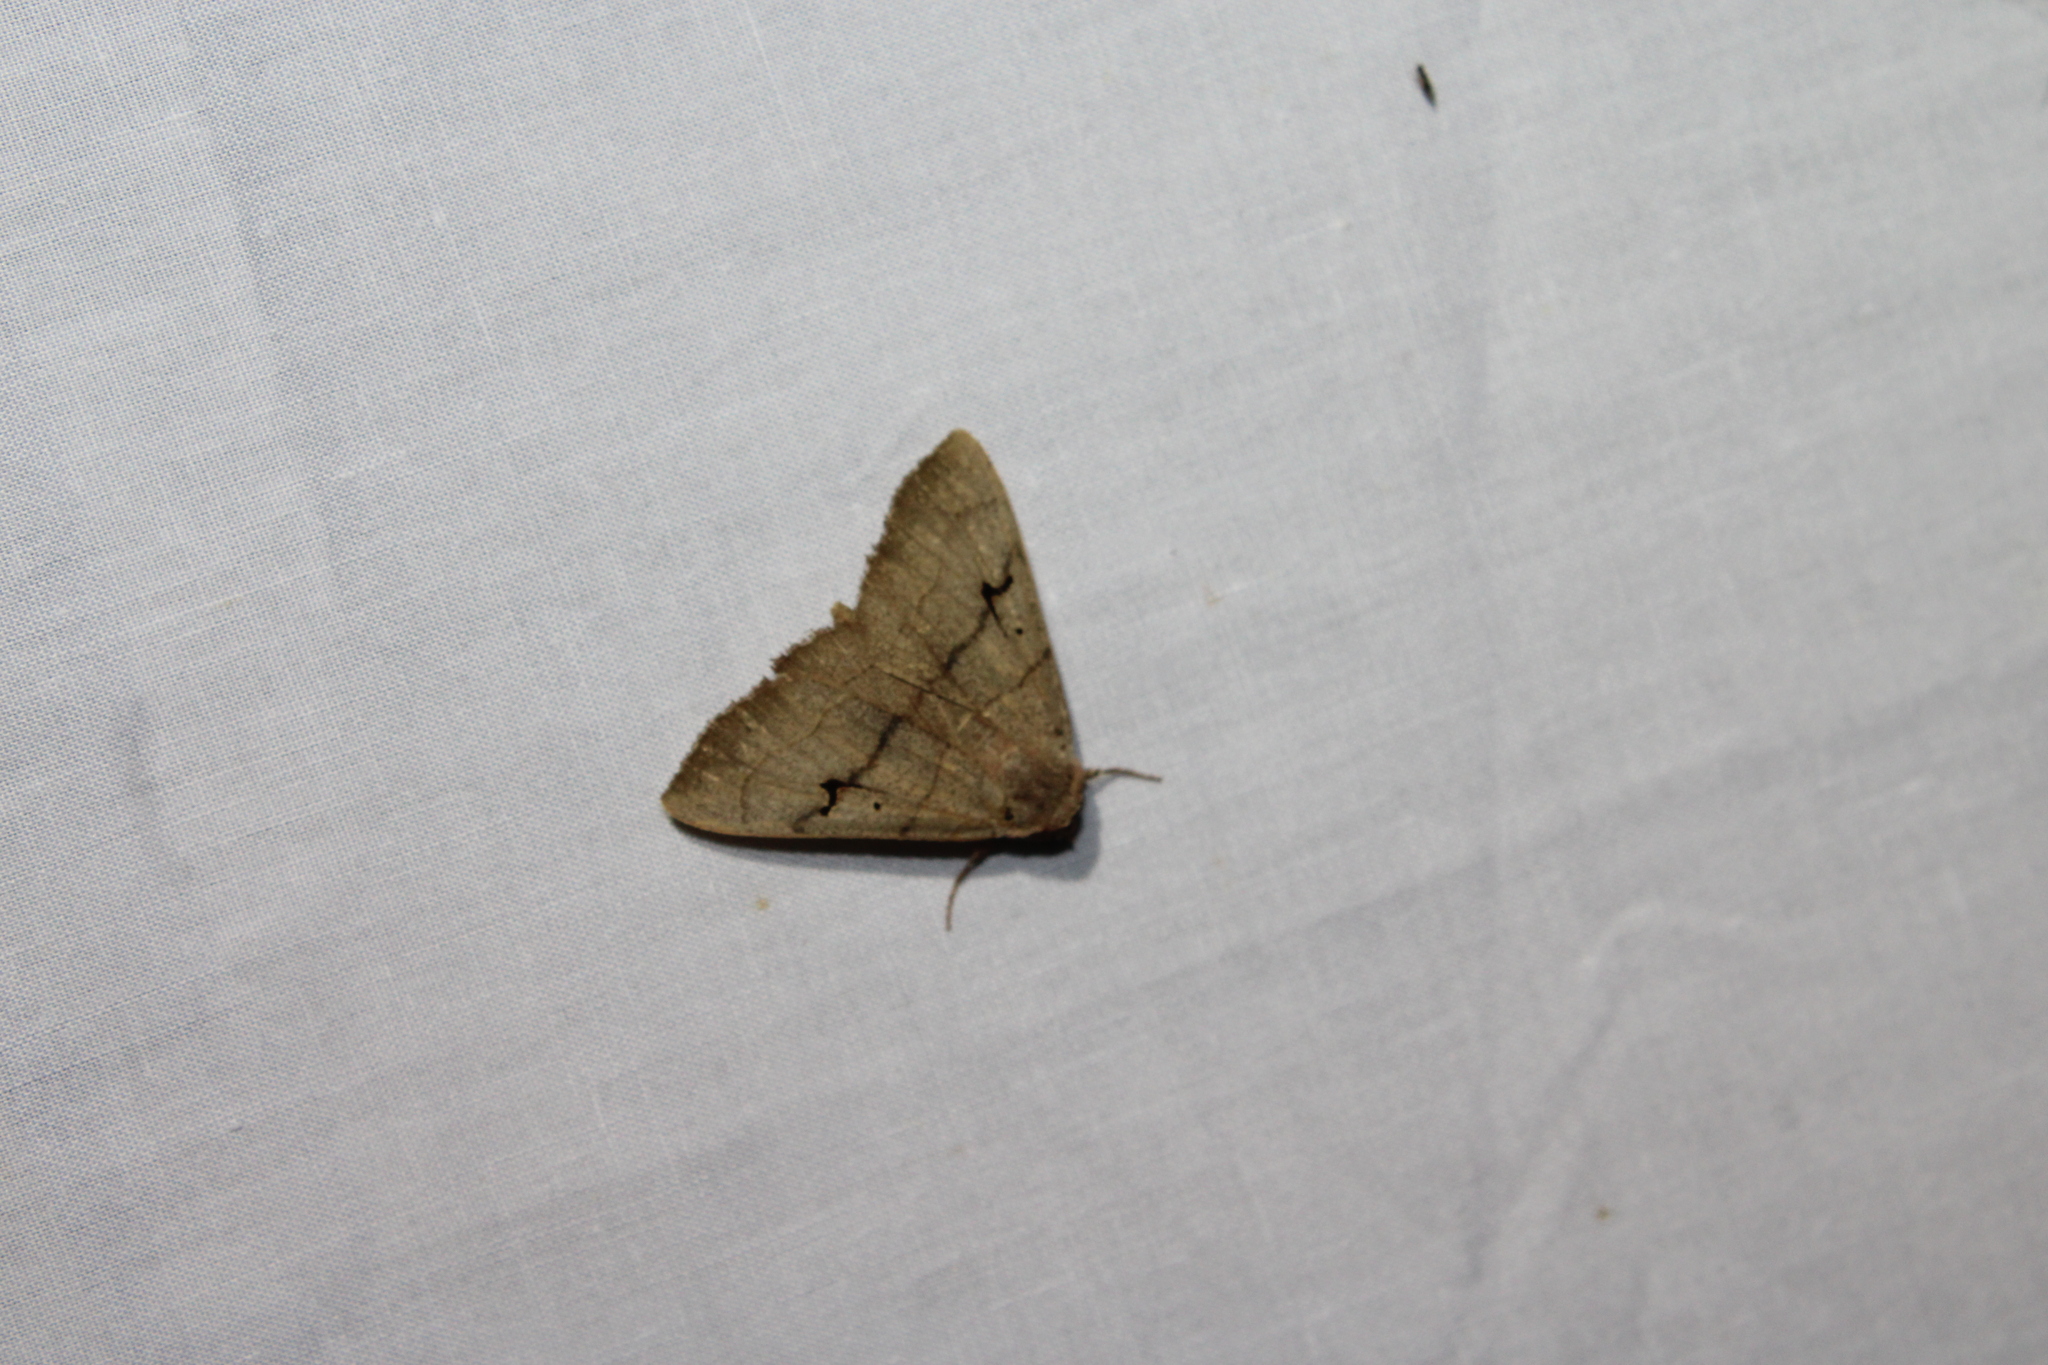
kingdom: Animalia
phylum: Arthropoda
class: Insecta
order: Lepidoptera
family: Erebidae
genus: Panopoda
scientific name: Panopoda carneicosta
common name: Brown panopoda moth
